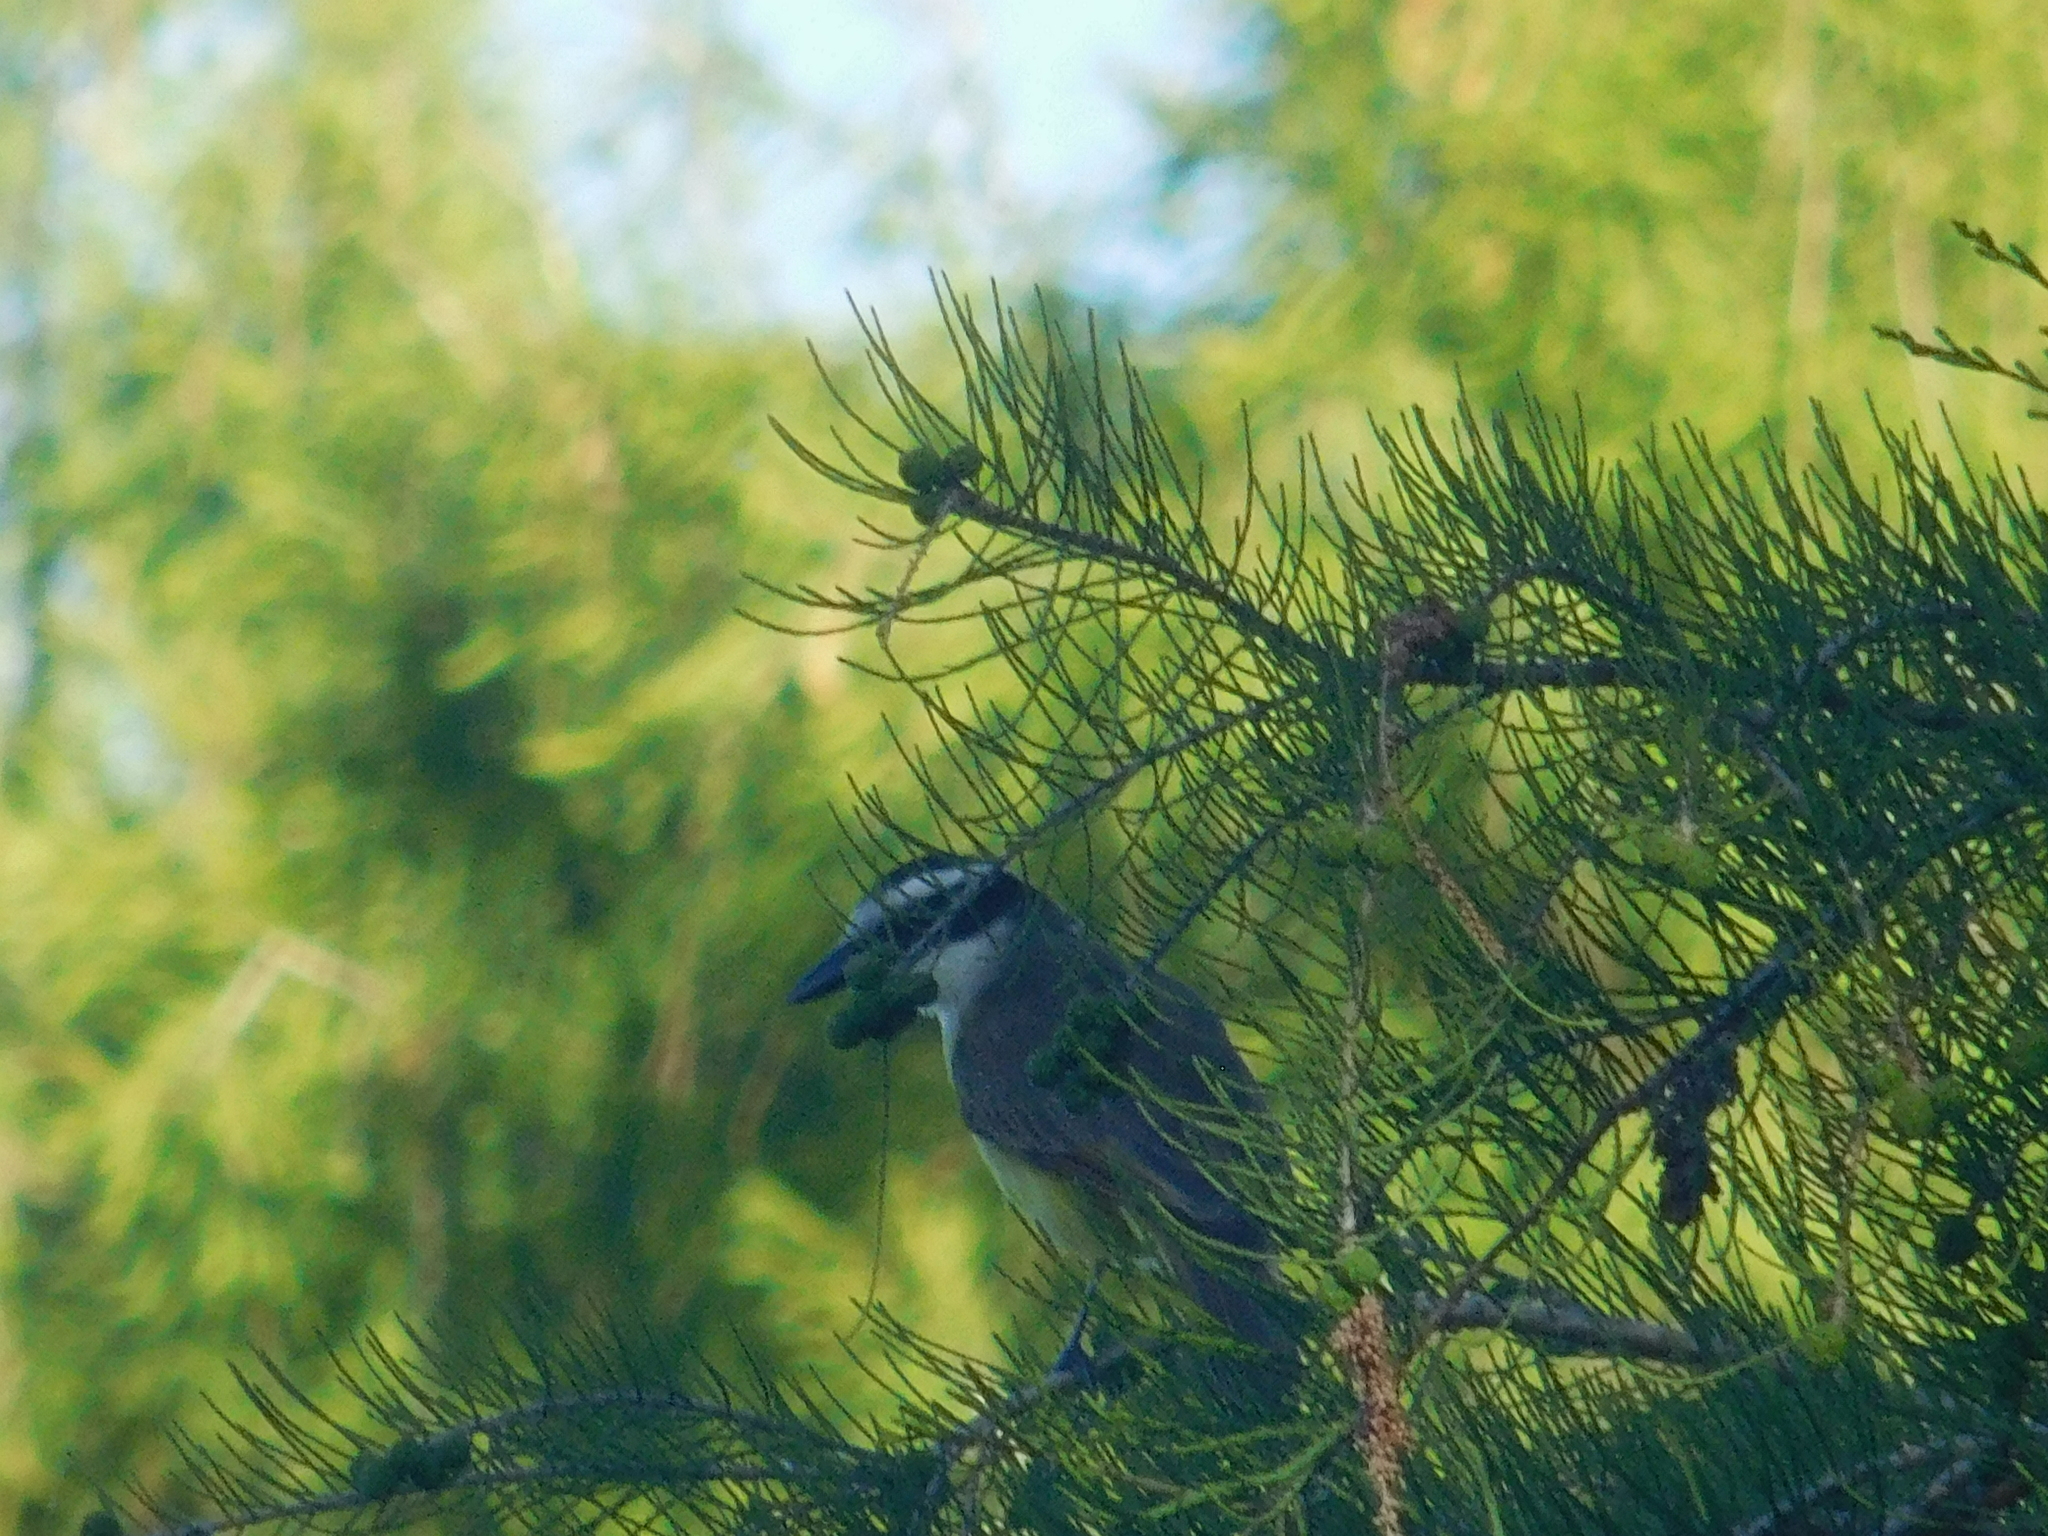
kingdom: Animalia
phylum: Chordata
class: Aves
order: Passeriformes
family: Tyrannidae
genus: Pitangus
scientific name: Pitangus sulphuratus
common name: Great kiskadee
